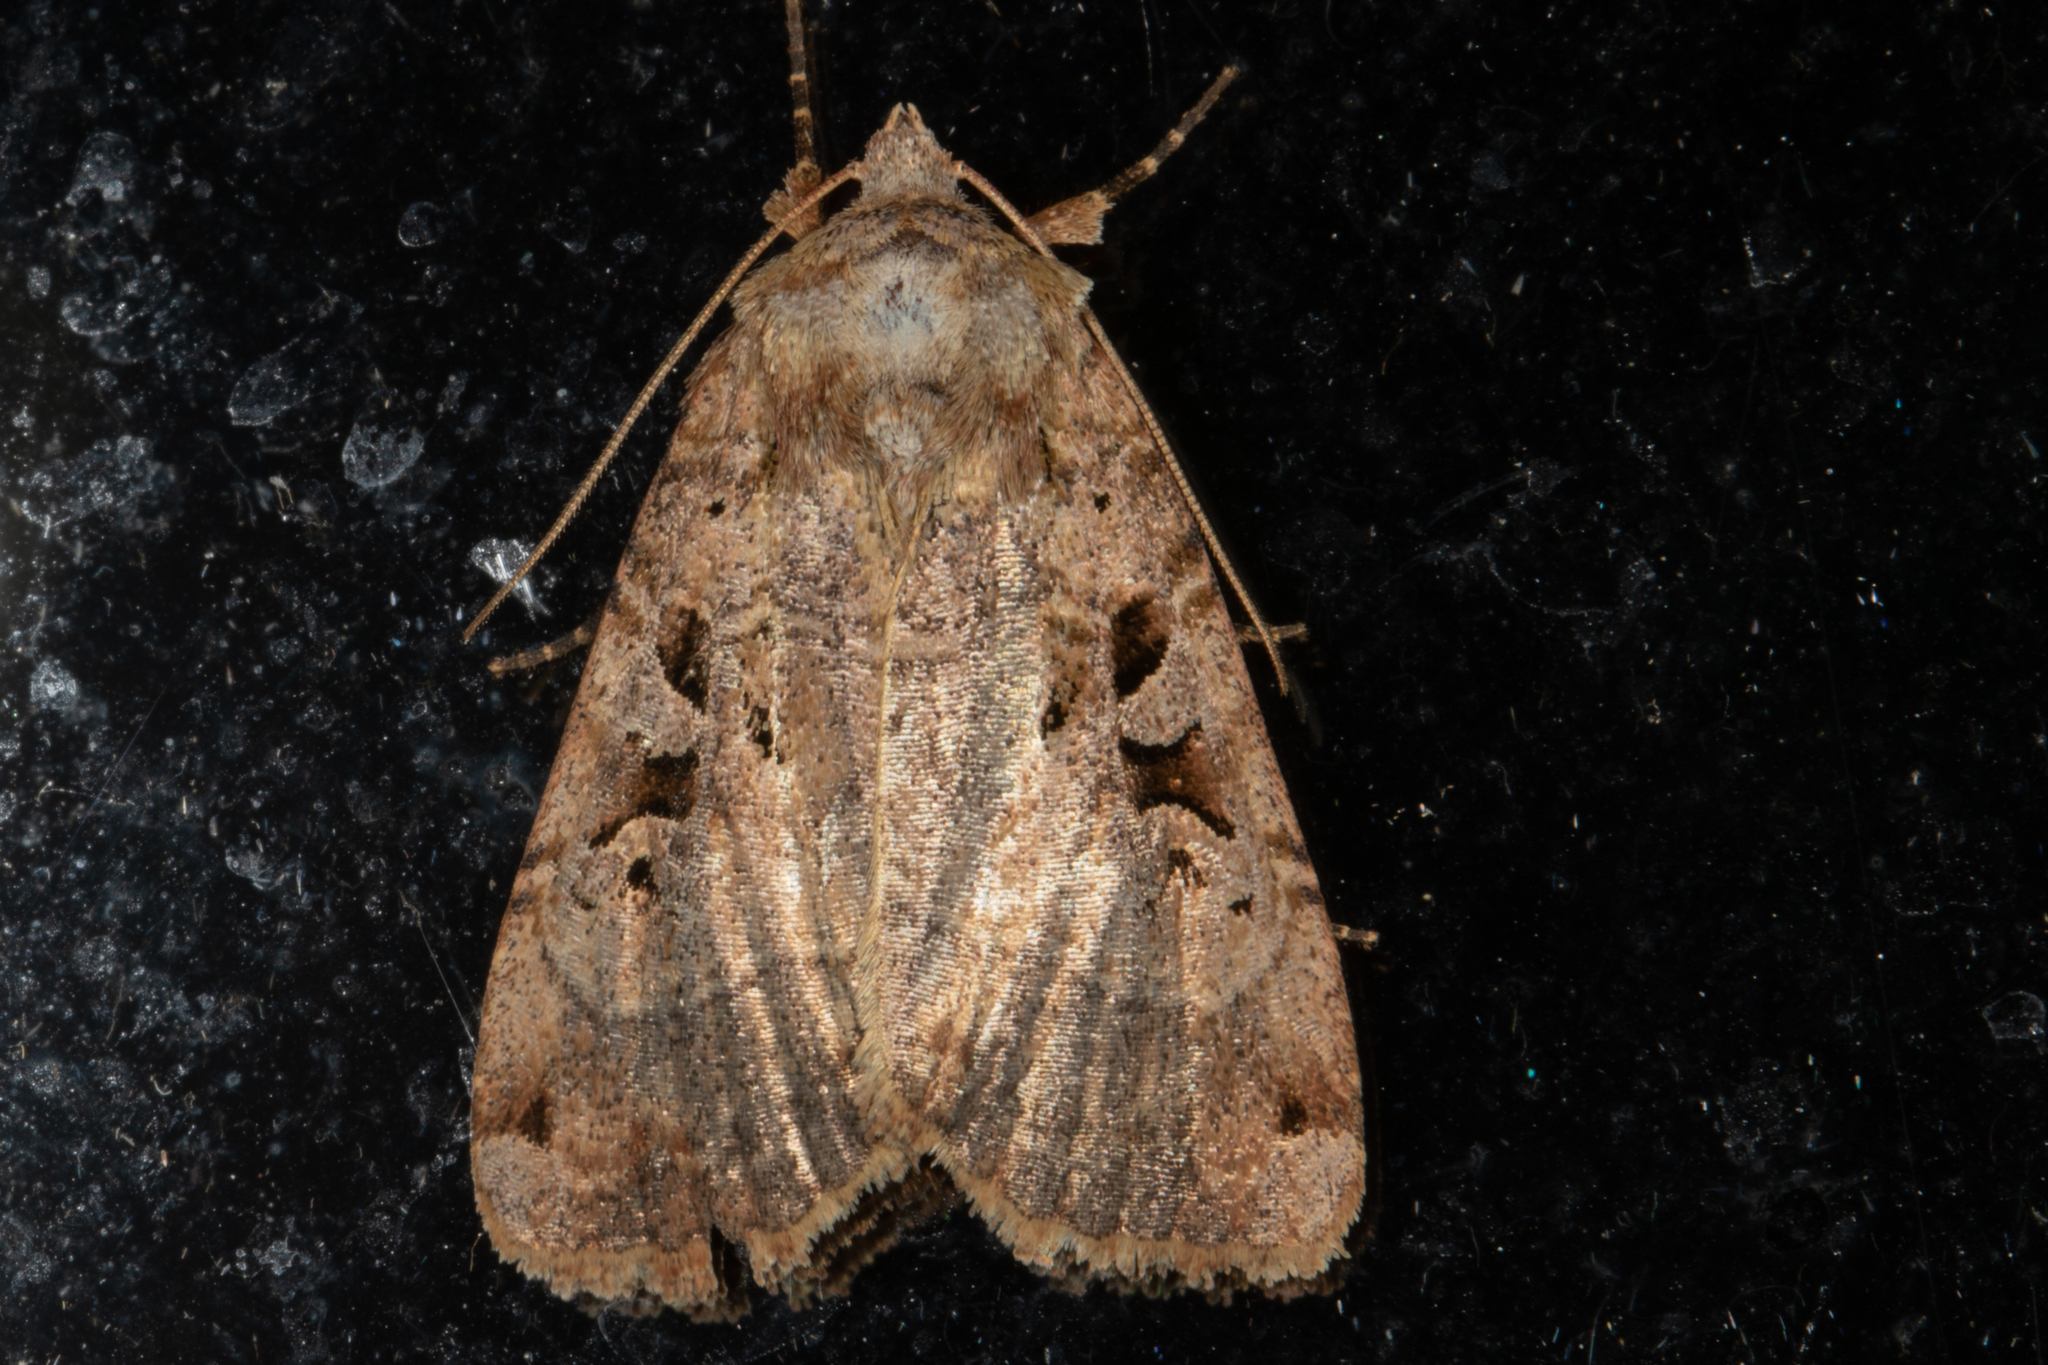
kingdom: Animalia
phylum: Arthropoda
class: Insecta
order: Lepidoptera
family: Noctuidae
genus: Xestia
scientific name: Xestia normaniana
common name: Norman's dart moth
